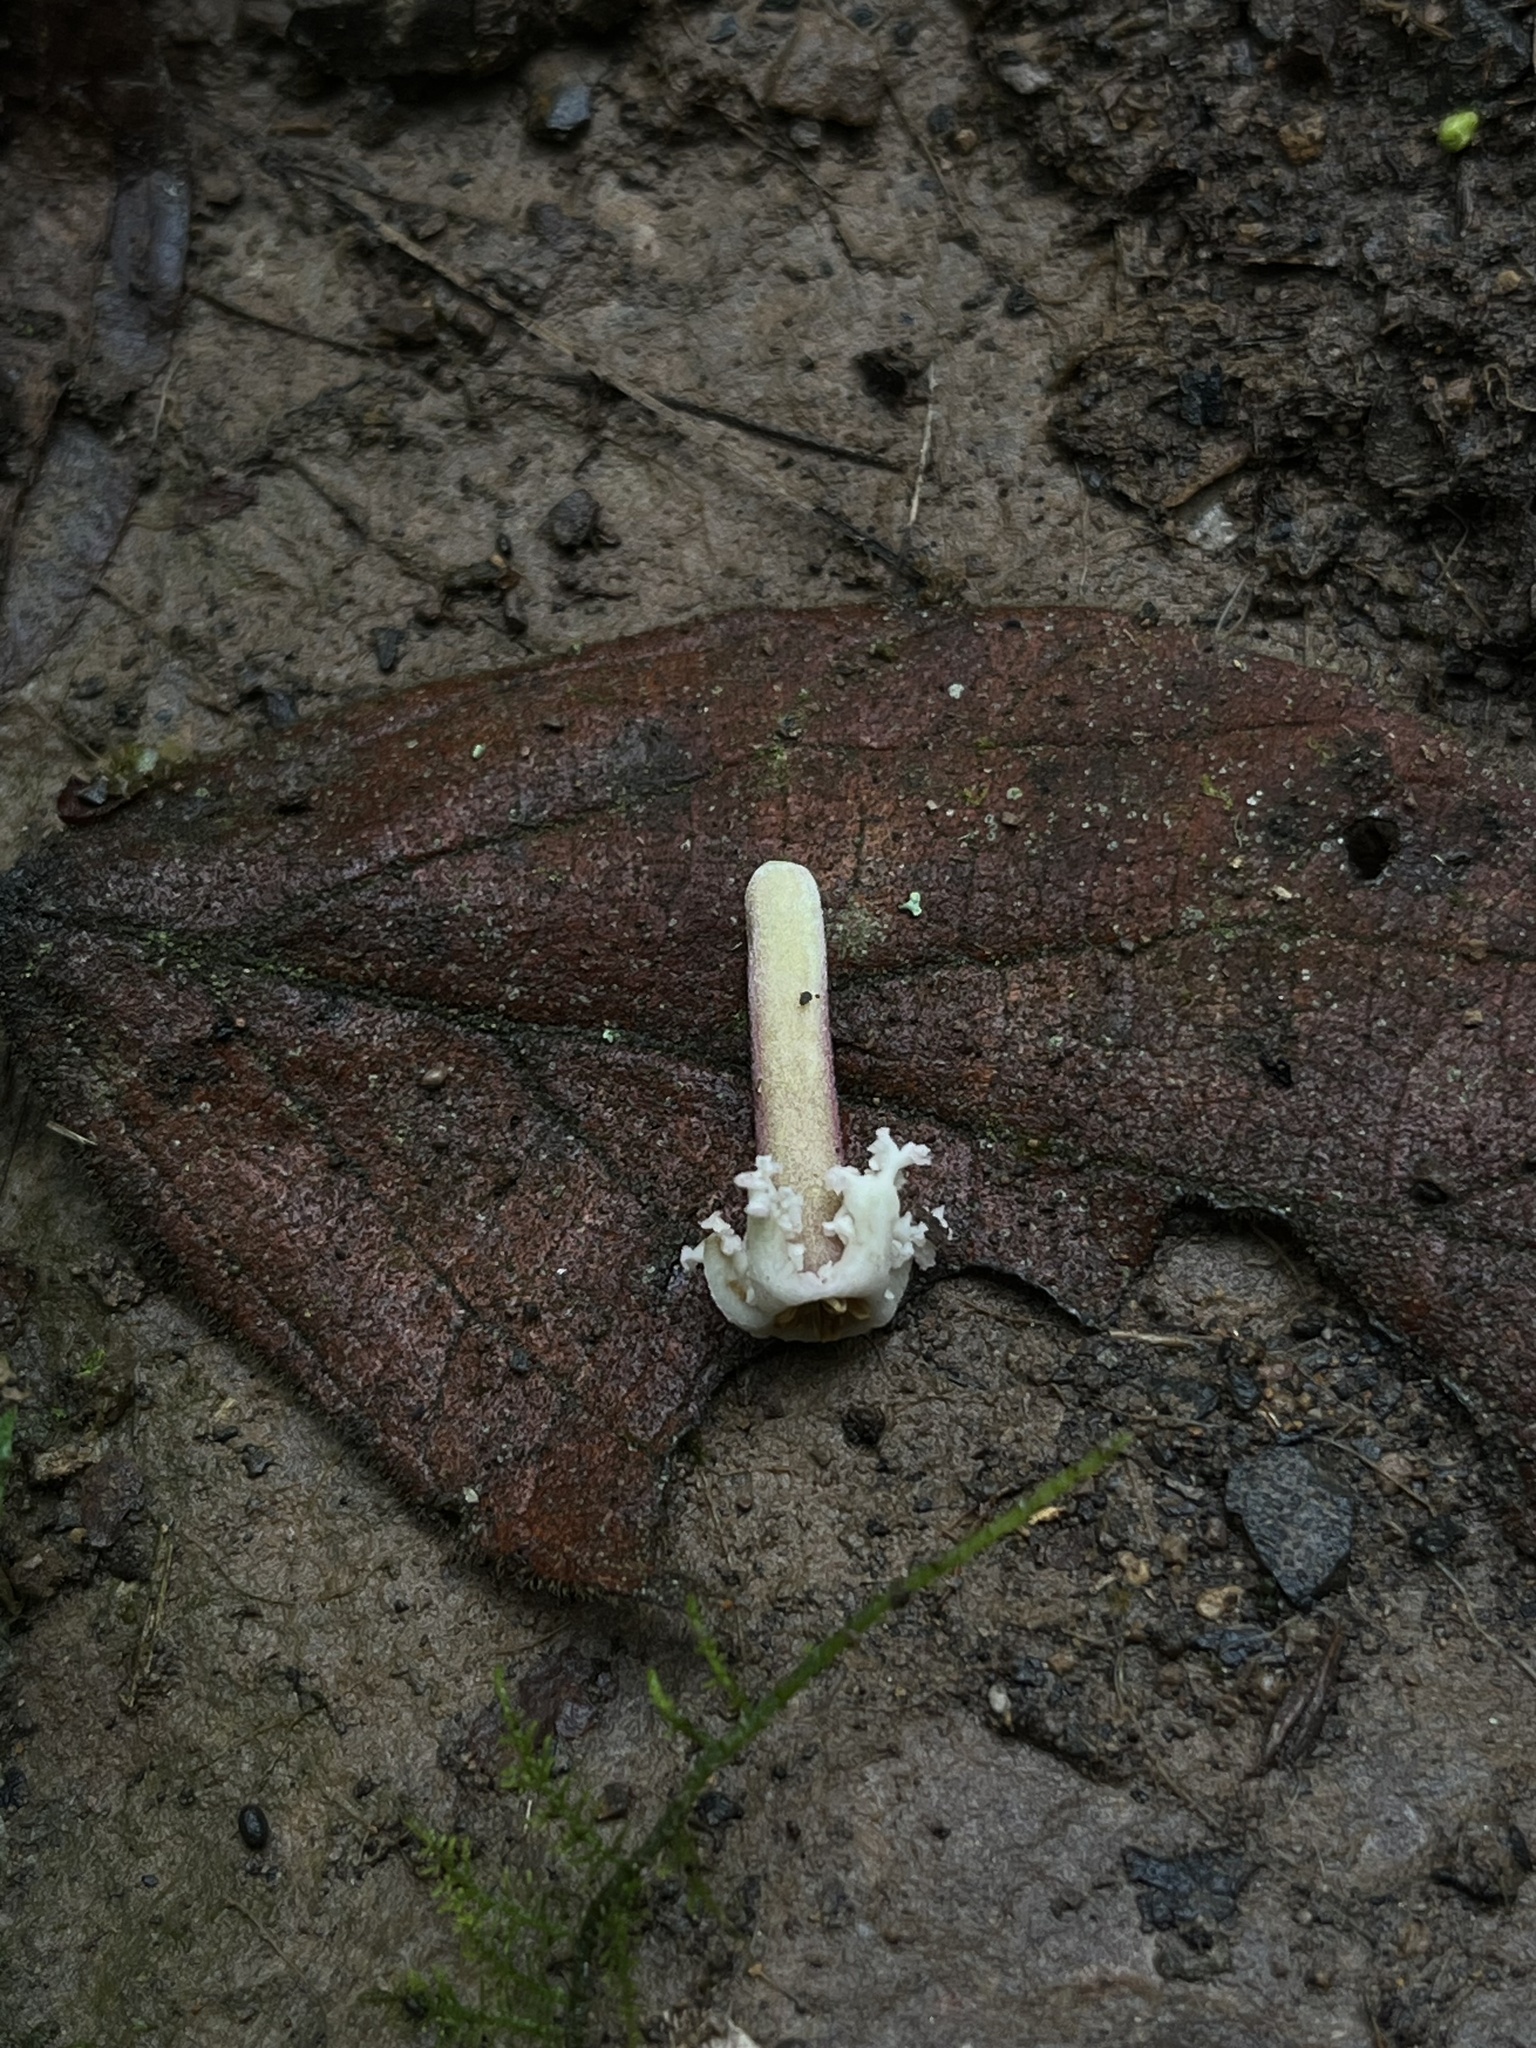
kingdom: Plantae
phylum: Tracheophyta
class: Magnoliopsida
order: Gentianales
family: Rubiaceae
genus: Guettarda
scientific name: Guettarda dependens
